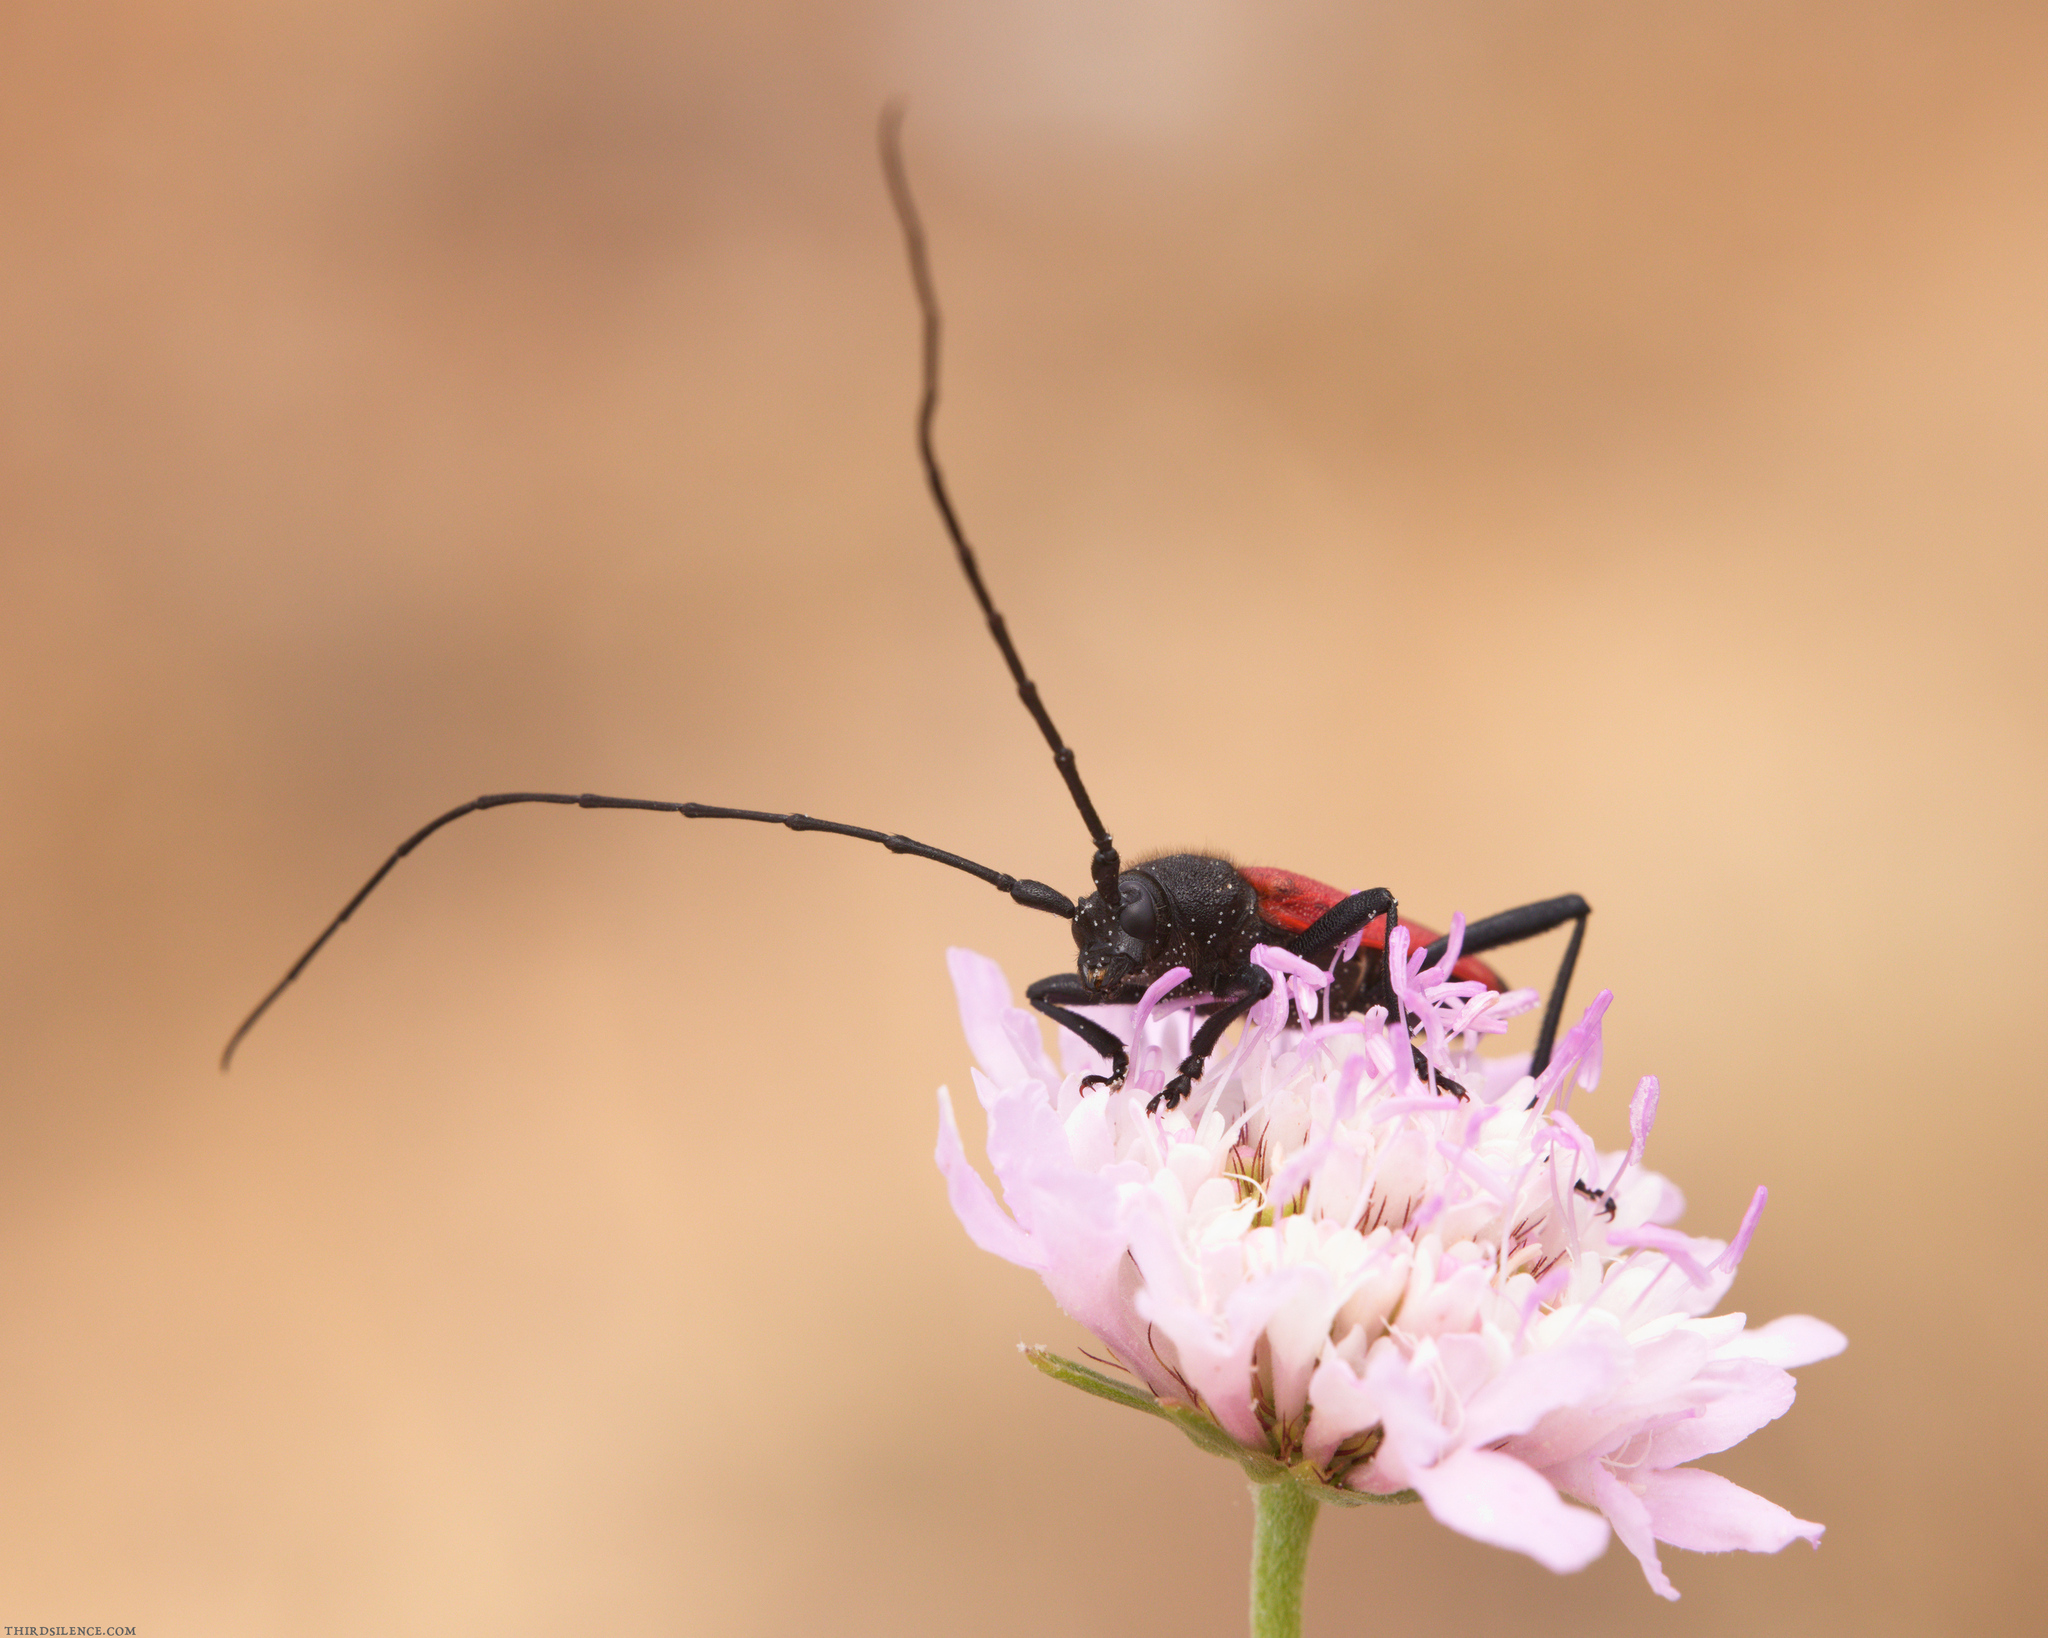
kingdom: Animalia
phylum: Arthropoda
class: Insecta
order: Coleoptera
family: Cerambycidae
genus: Purpuricenus
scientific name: Purpuricenus budensis
